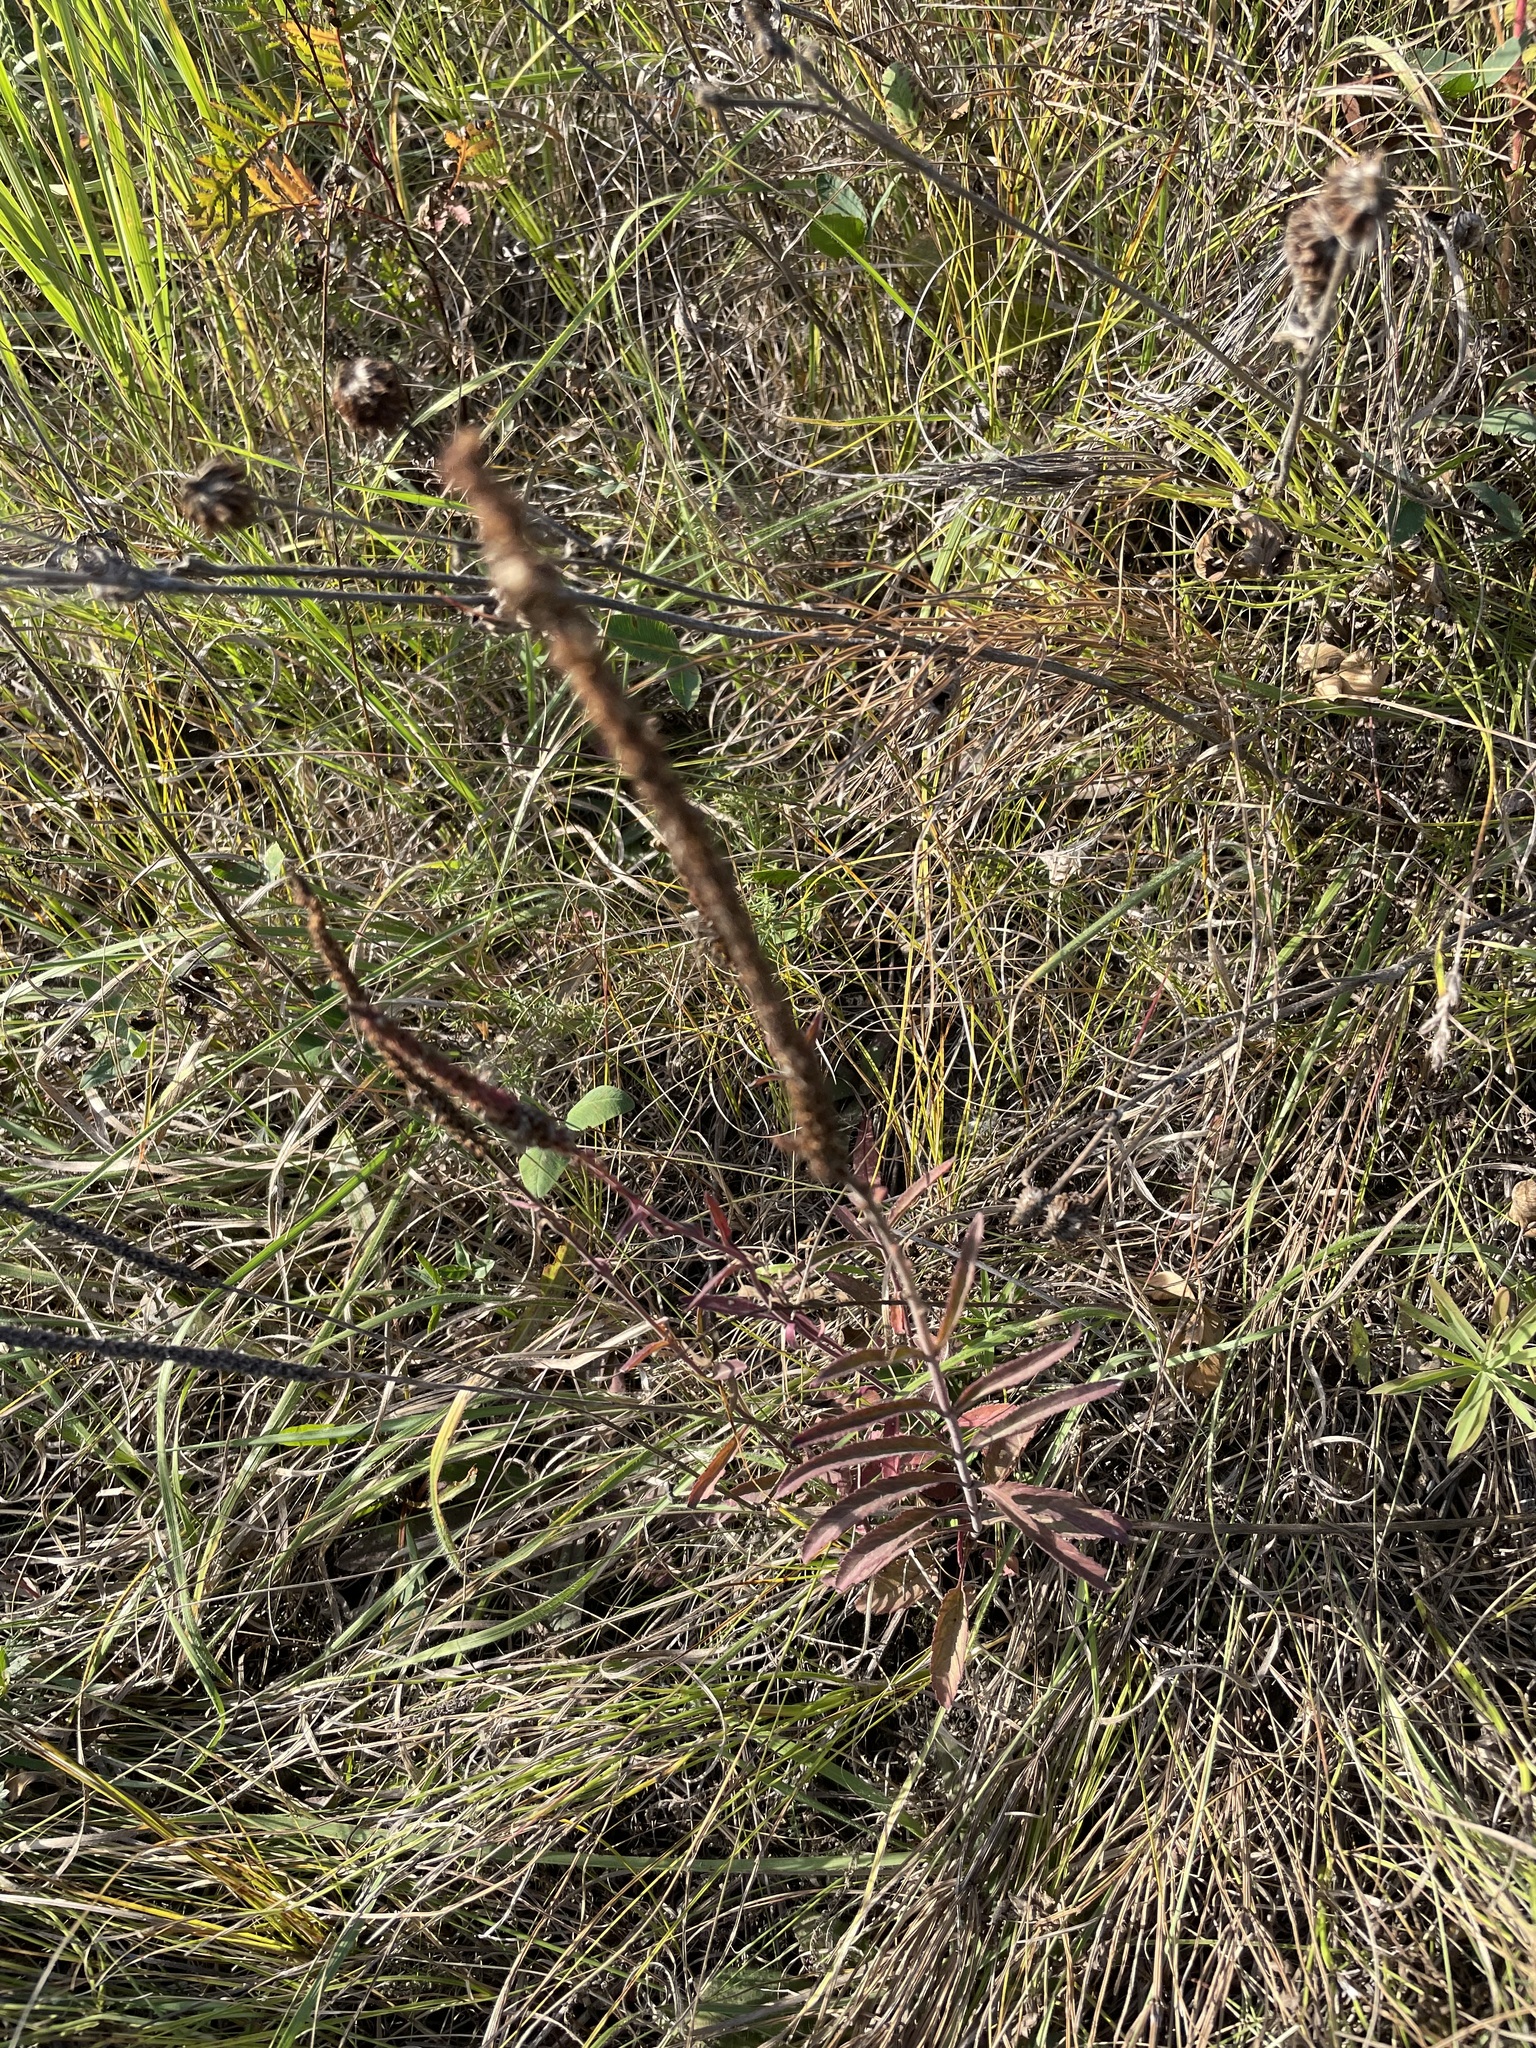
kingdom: Plantae
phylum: Tracheophyta
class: Magnoliopsida
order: Lamiales
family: Plantaginaceae
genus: Veronica
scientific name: Veronica spicata
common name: Spiked speedwell
